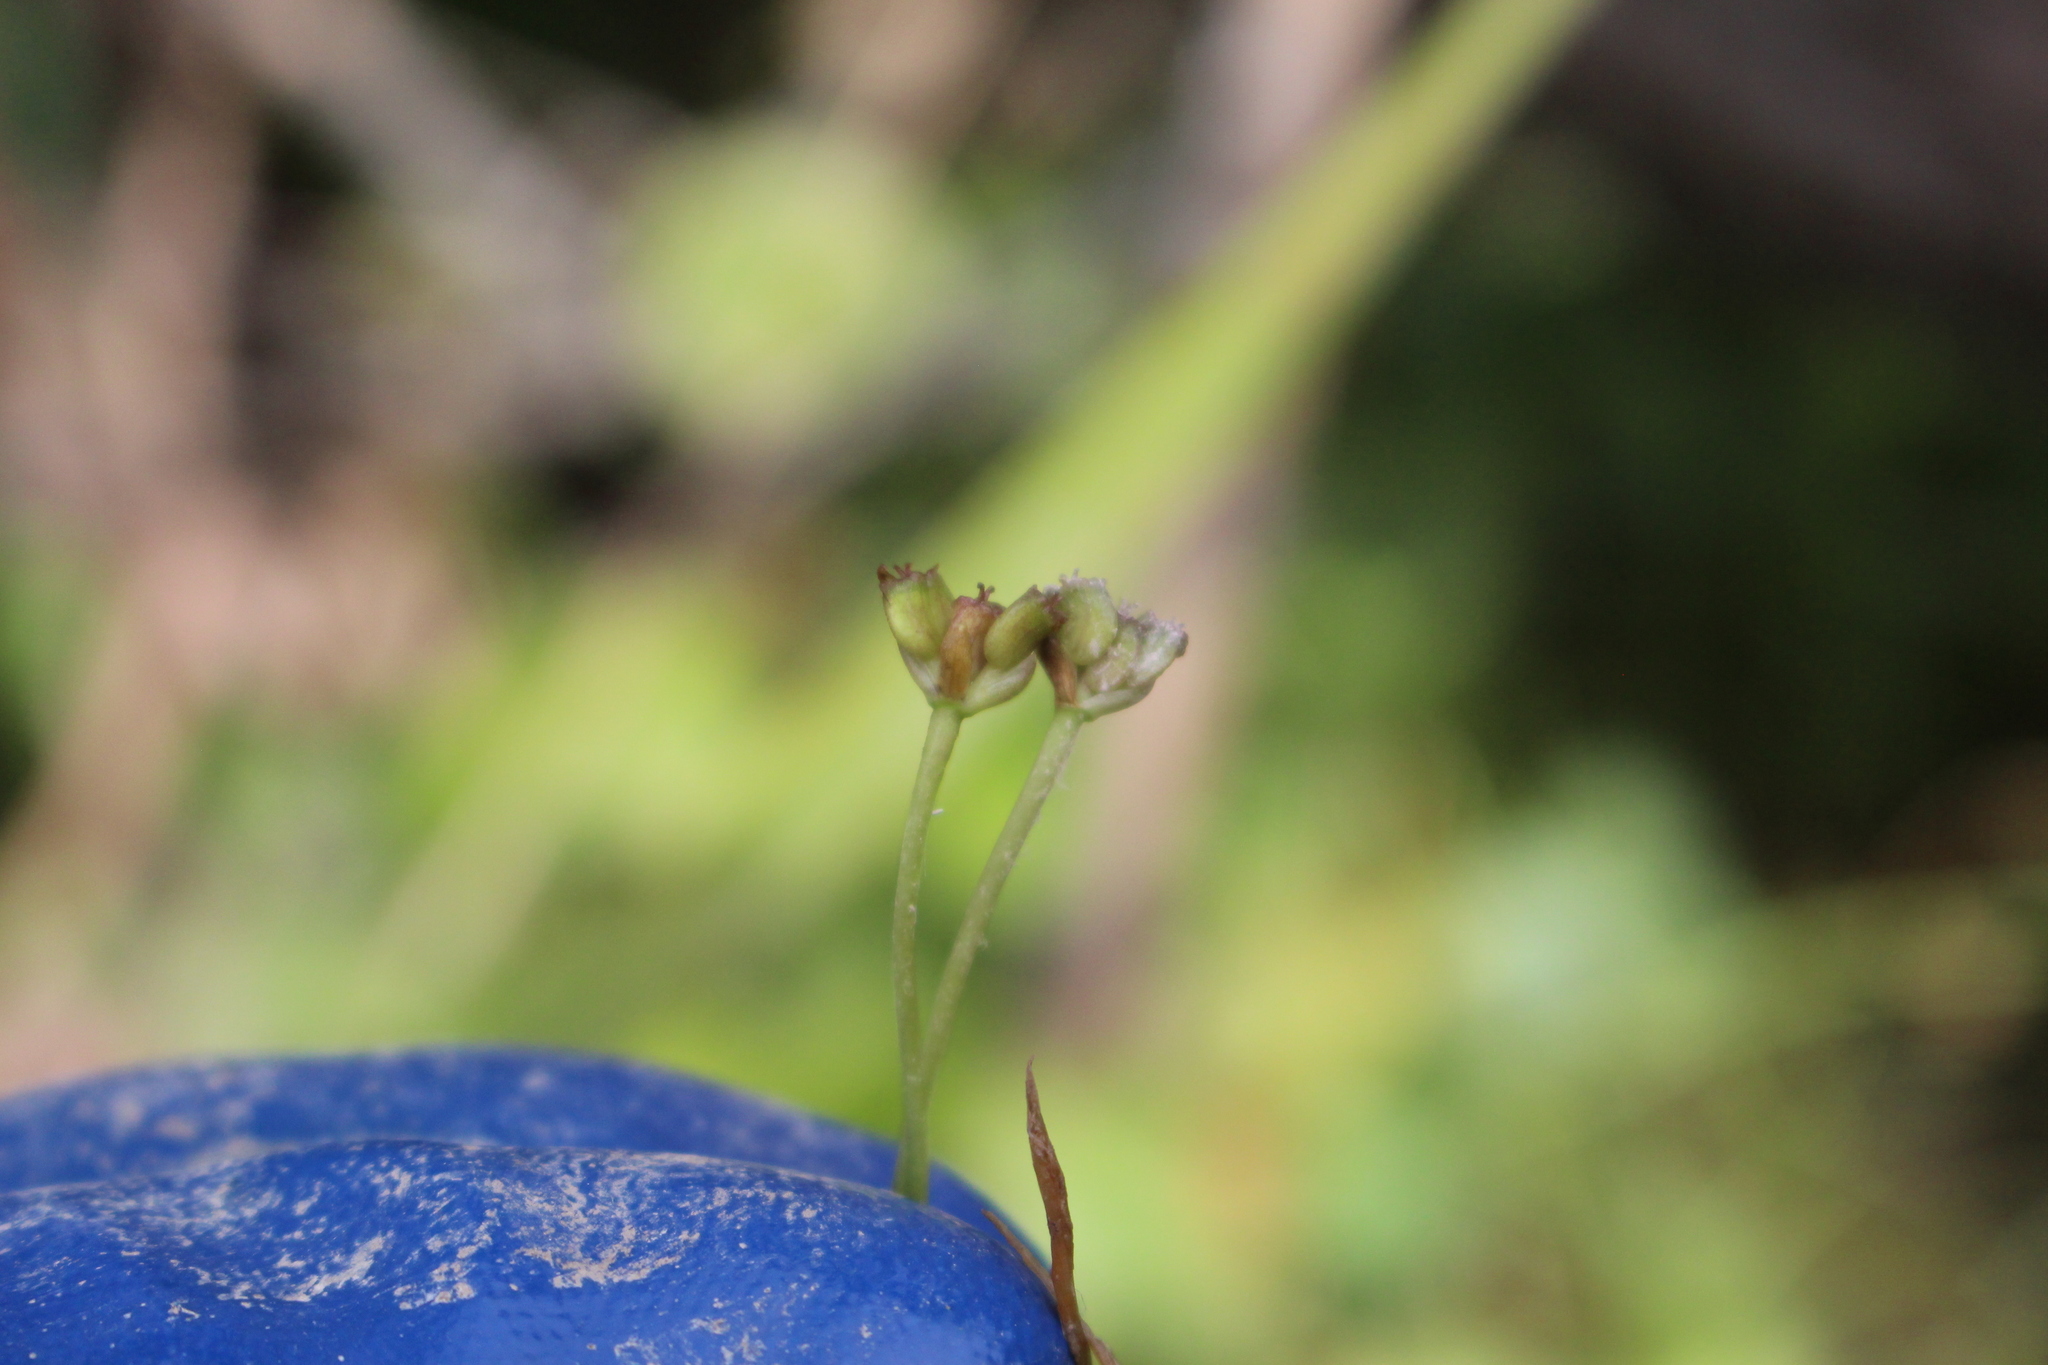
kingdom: Plantae
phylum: Tracheophyta
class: Magnoliopsida
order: Apiales
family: Apiaceae
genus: Centella
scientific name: Centella uniflora
